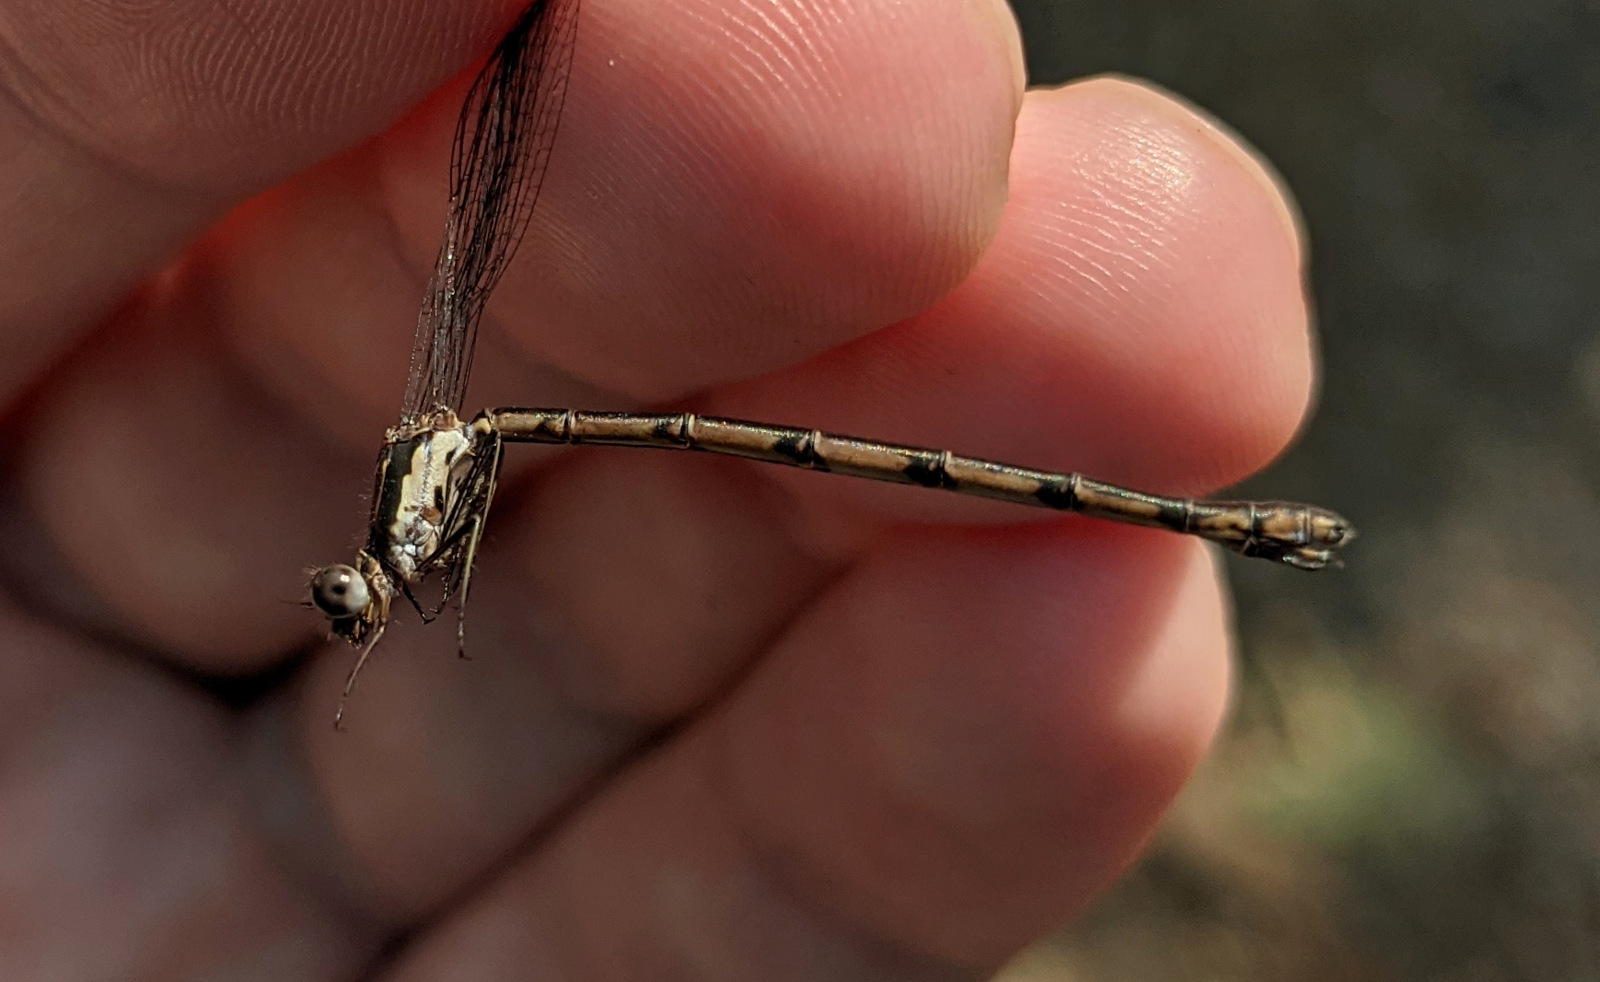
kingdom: Animalia
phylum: Arthropoda
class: Insecta
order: Odonata
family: Lestidae
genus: Lestes
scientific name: Lestes congener
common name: Spotted spreadwing
